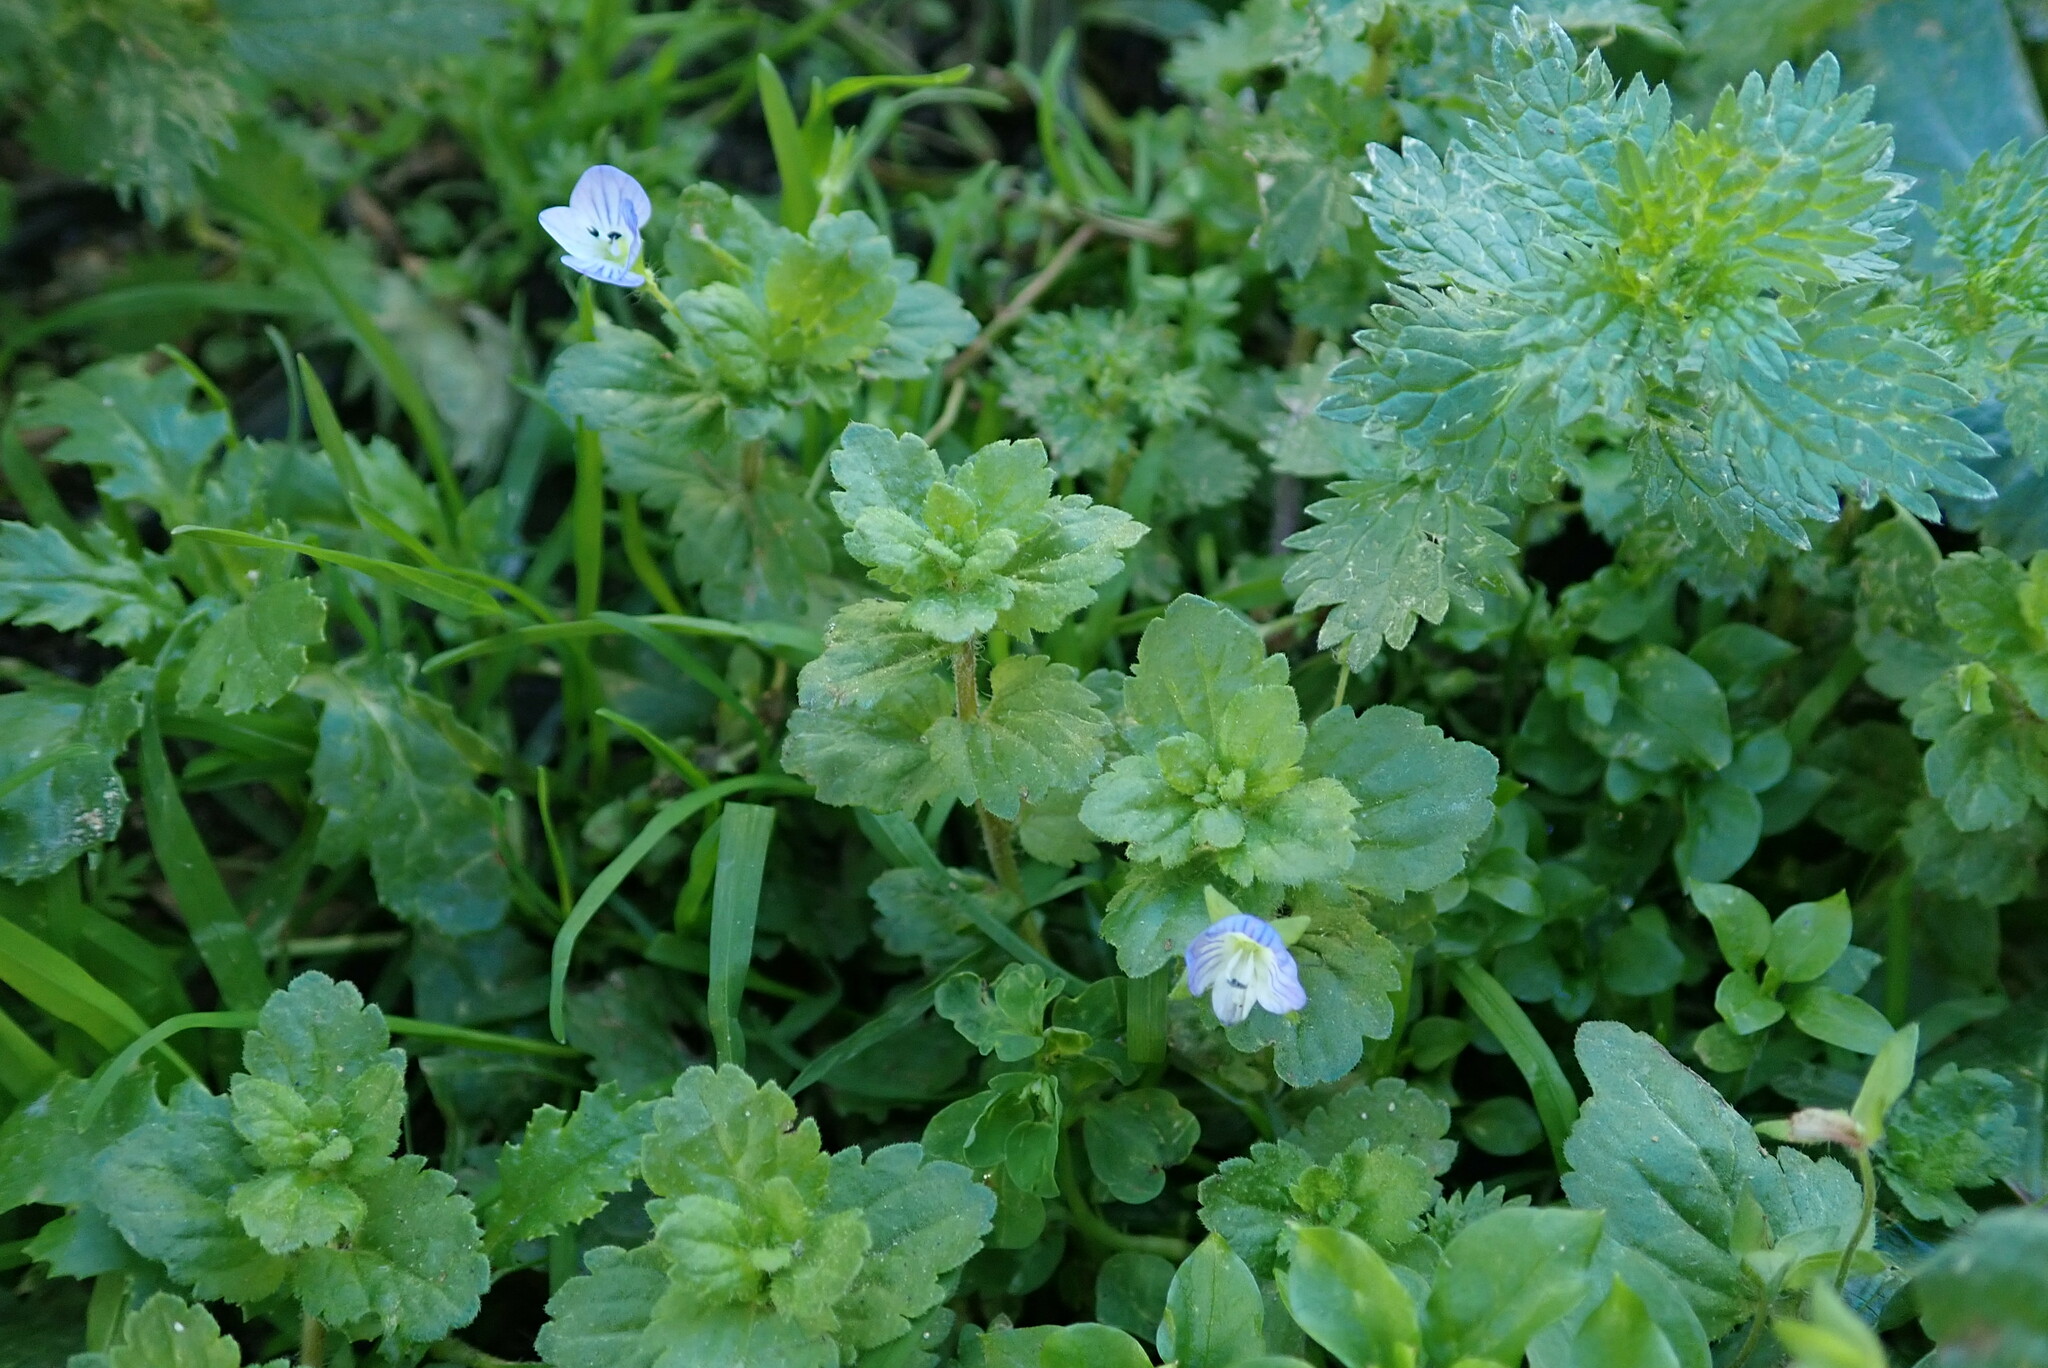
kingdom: Plantae
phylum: Tracheophyta
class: Magnoliopsida
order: Lamiales
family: Plantaginaceae
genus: Veronica
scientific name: Veronica persica
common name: Common field-speedwell
